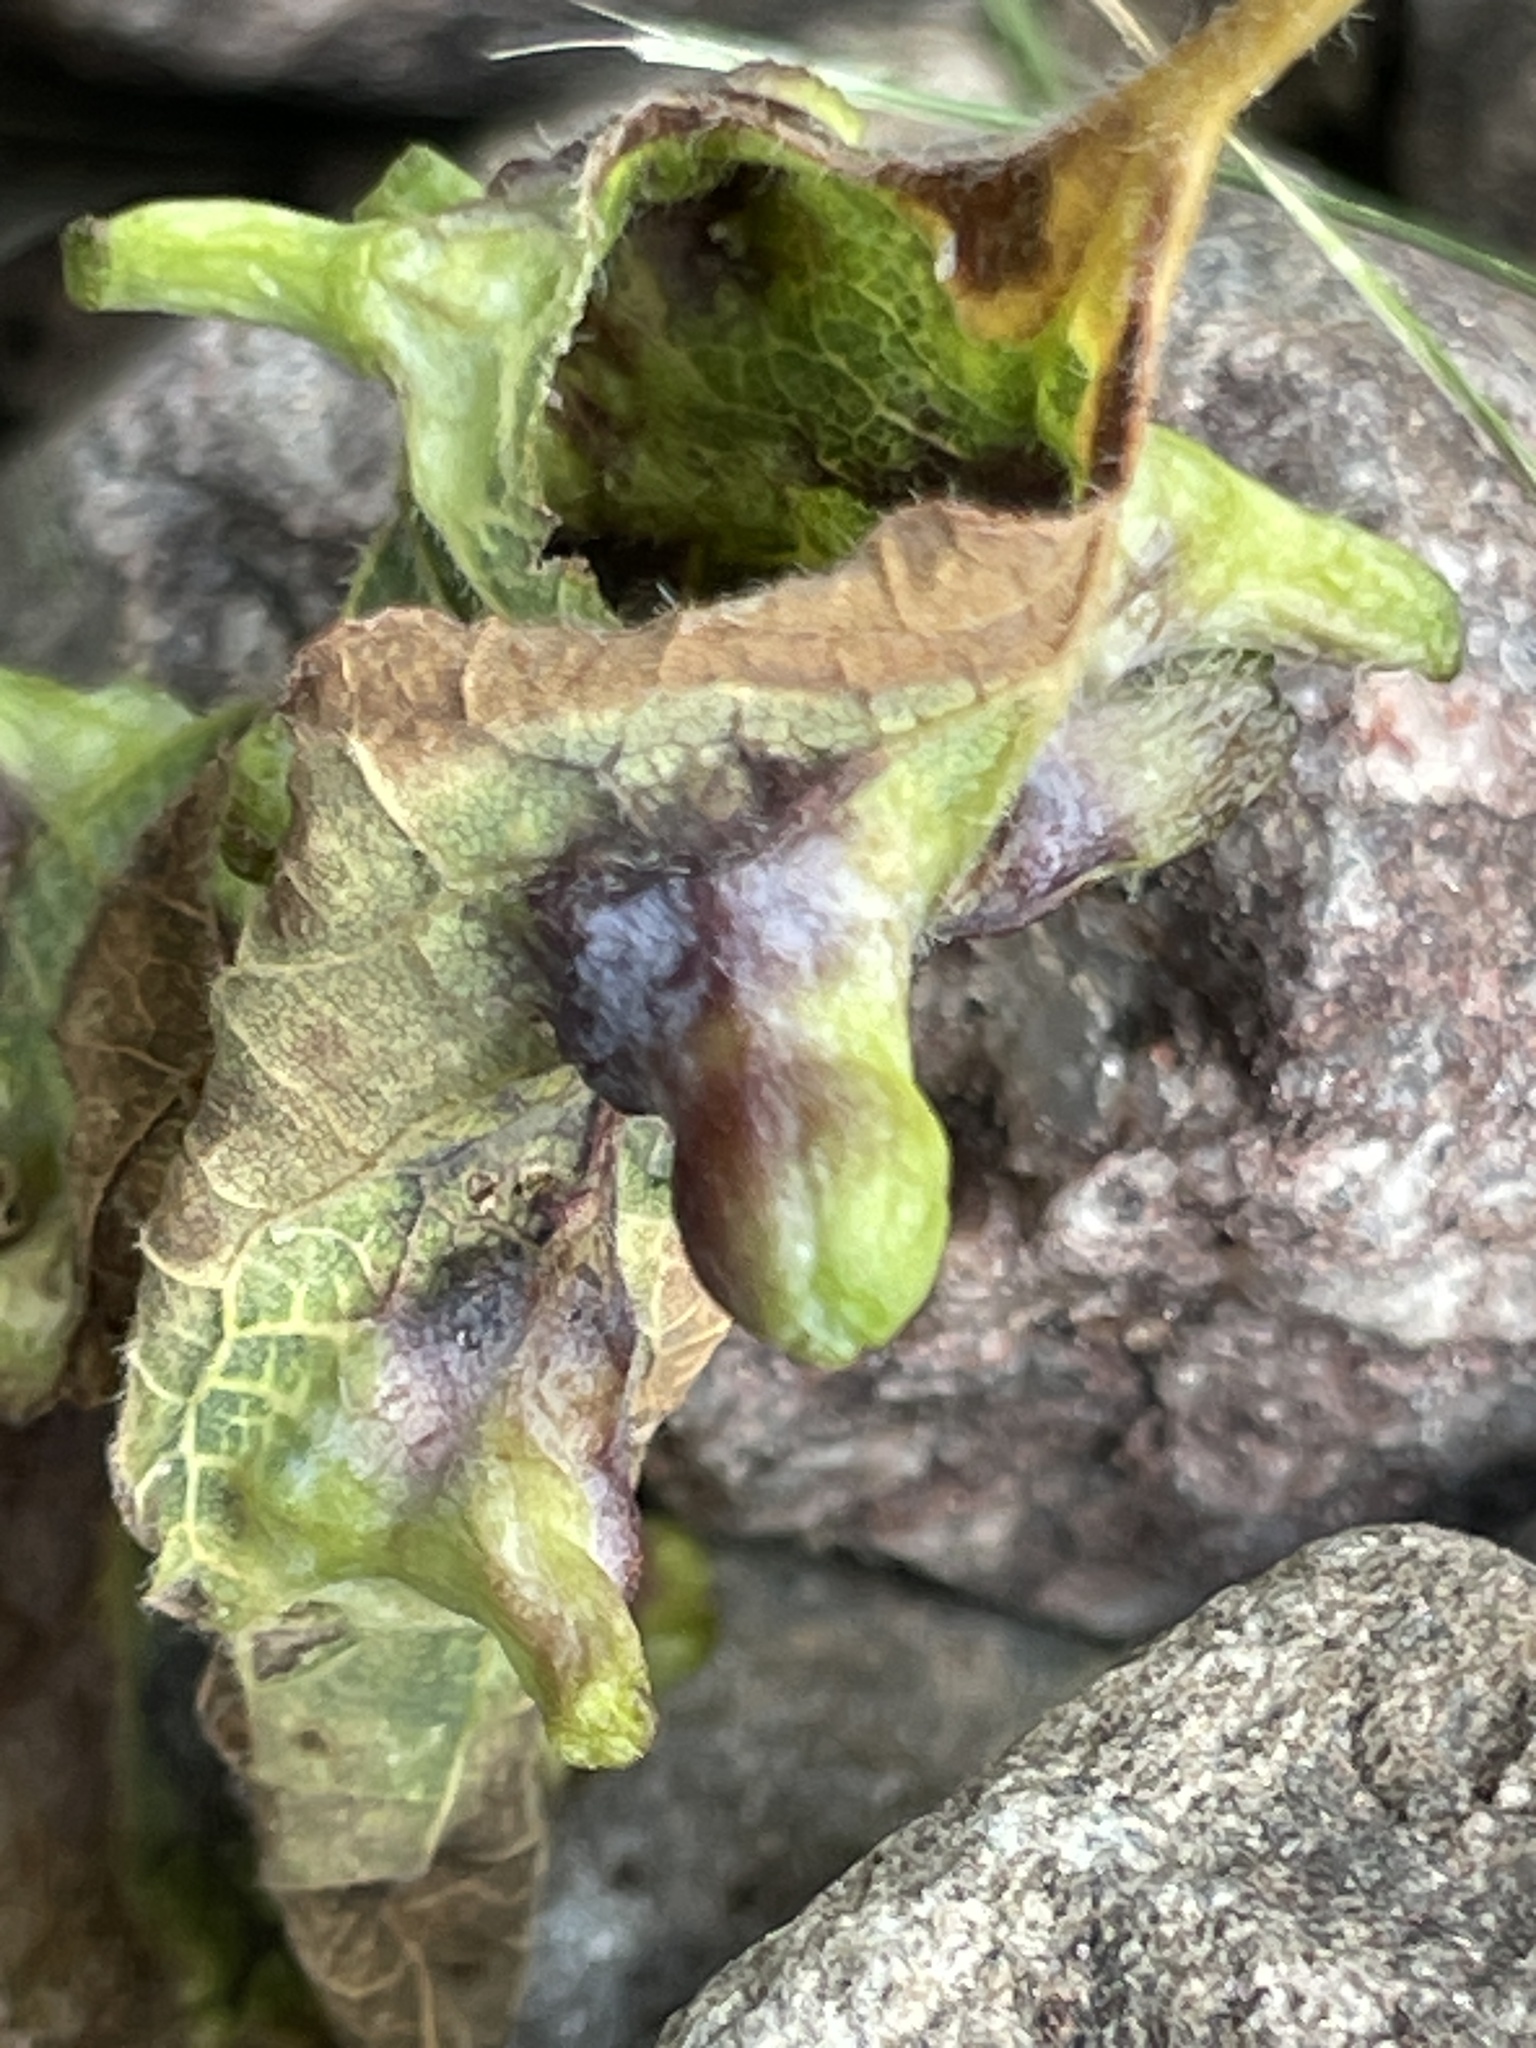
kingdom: Animalia
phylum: Arthropoda
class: Insecta
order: Hemiptera
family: Aphalaridae
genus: Pachypsylla
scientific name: Pachypsylla celtidismamma
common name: Hackberry nipplegall psyllid
